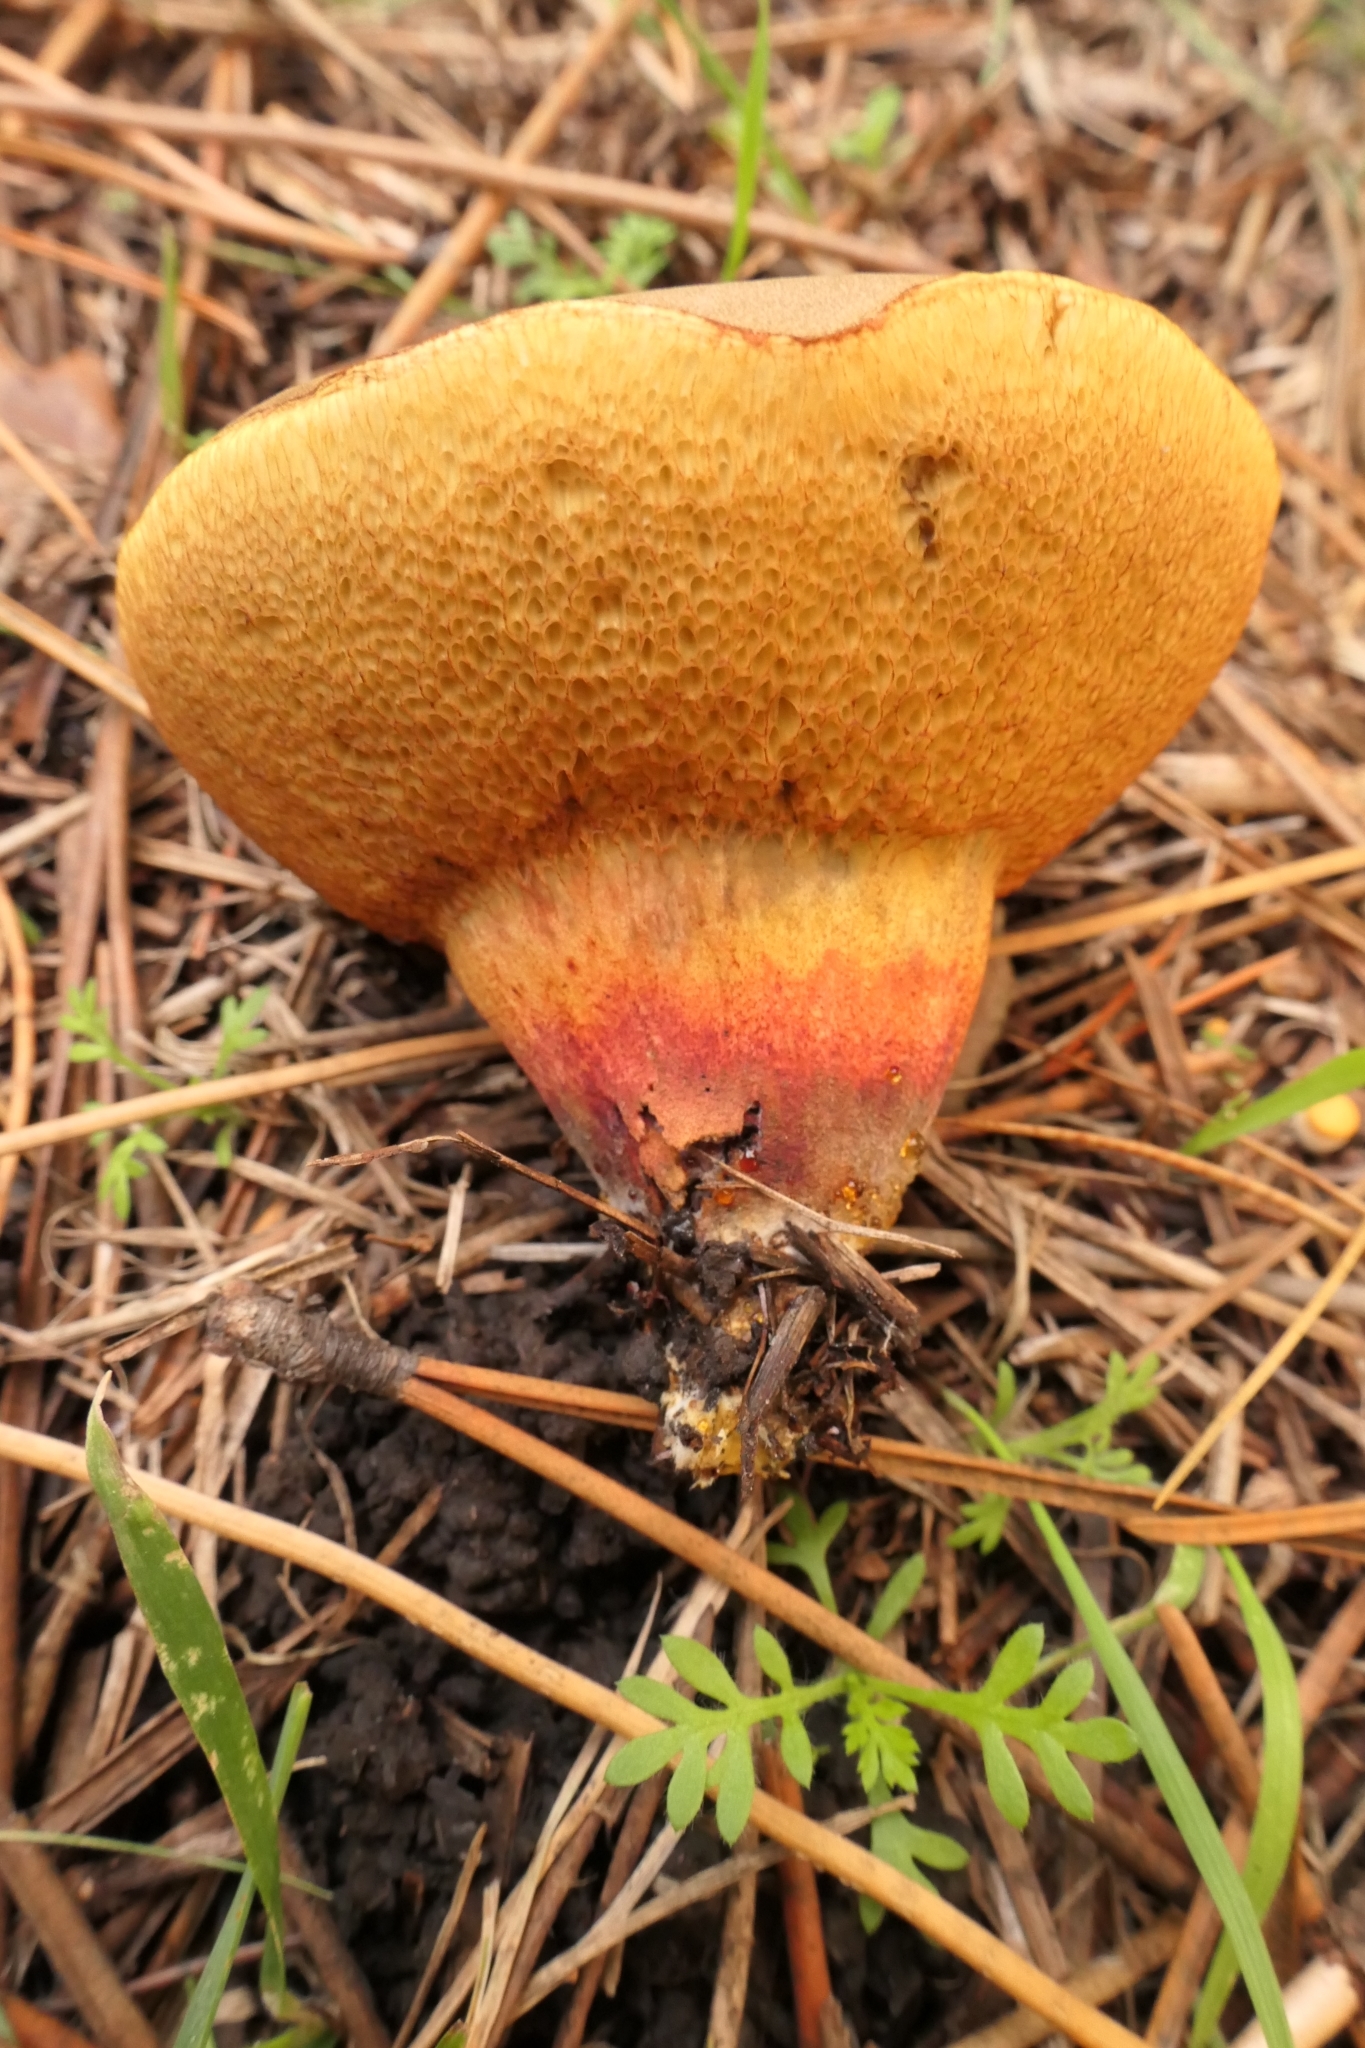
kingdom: Fungi
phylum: Basidiomycota
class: Agaricomycetes
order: Boletales
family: Boletaceae
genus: Xerocomellus
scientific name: Xerocomellus cisalpinus
